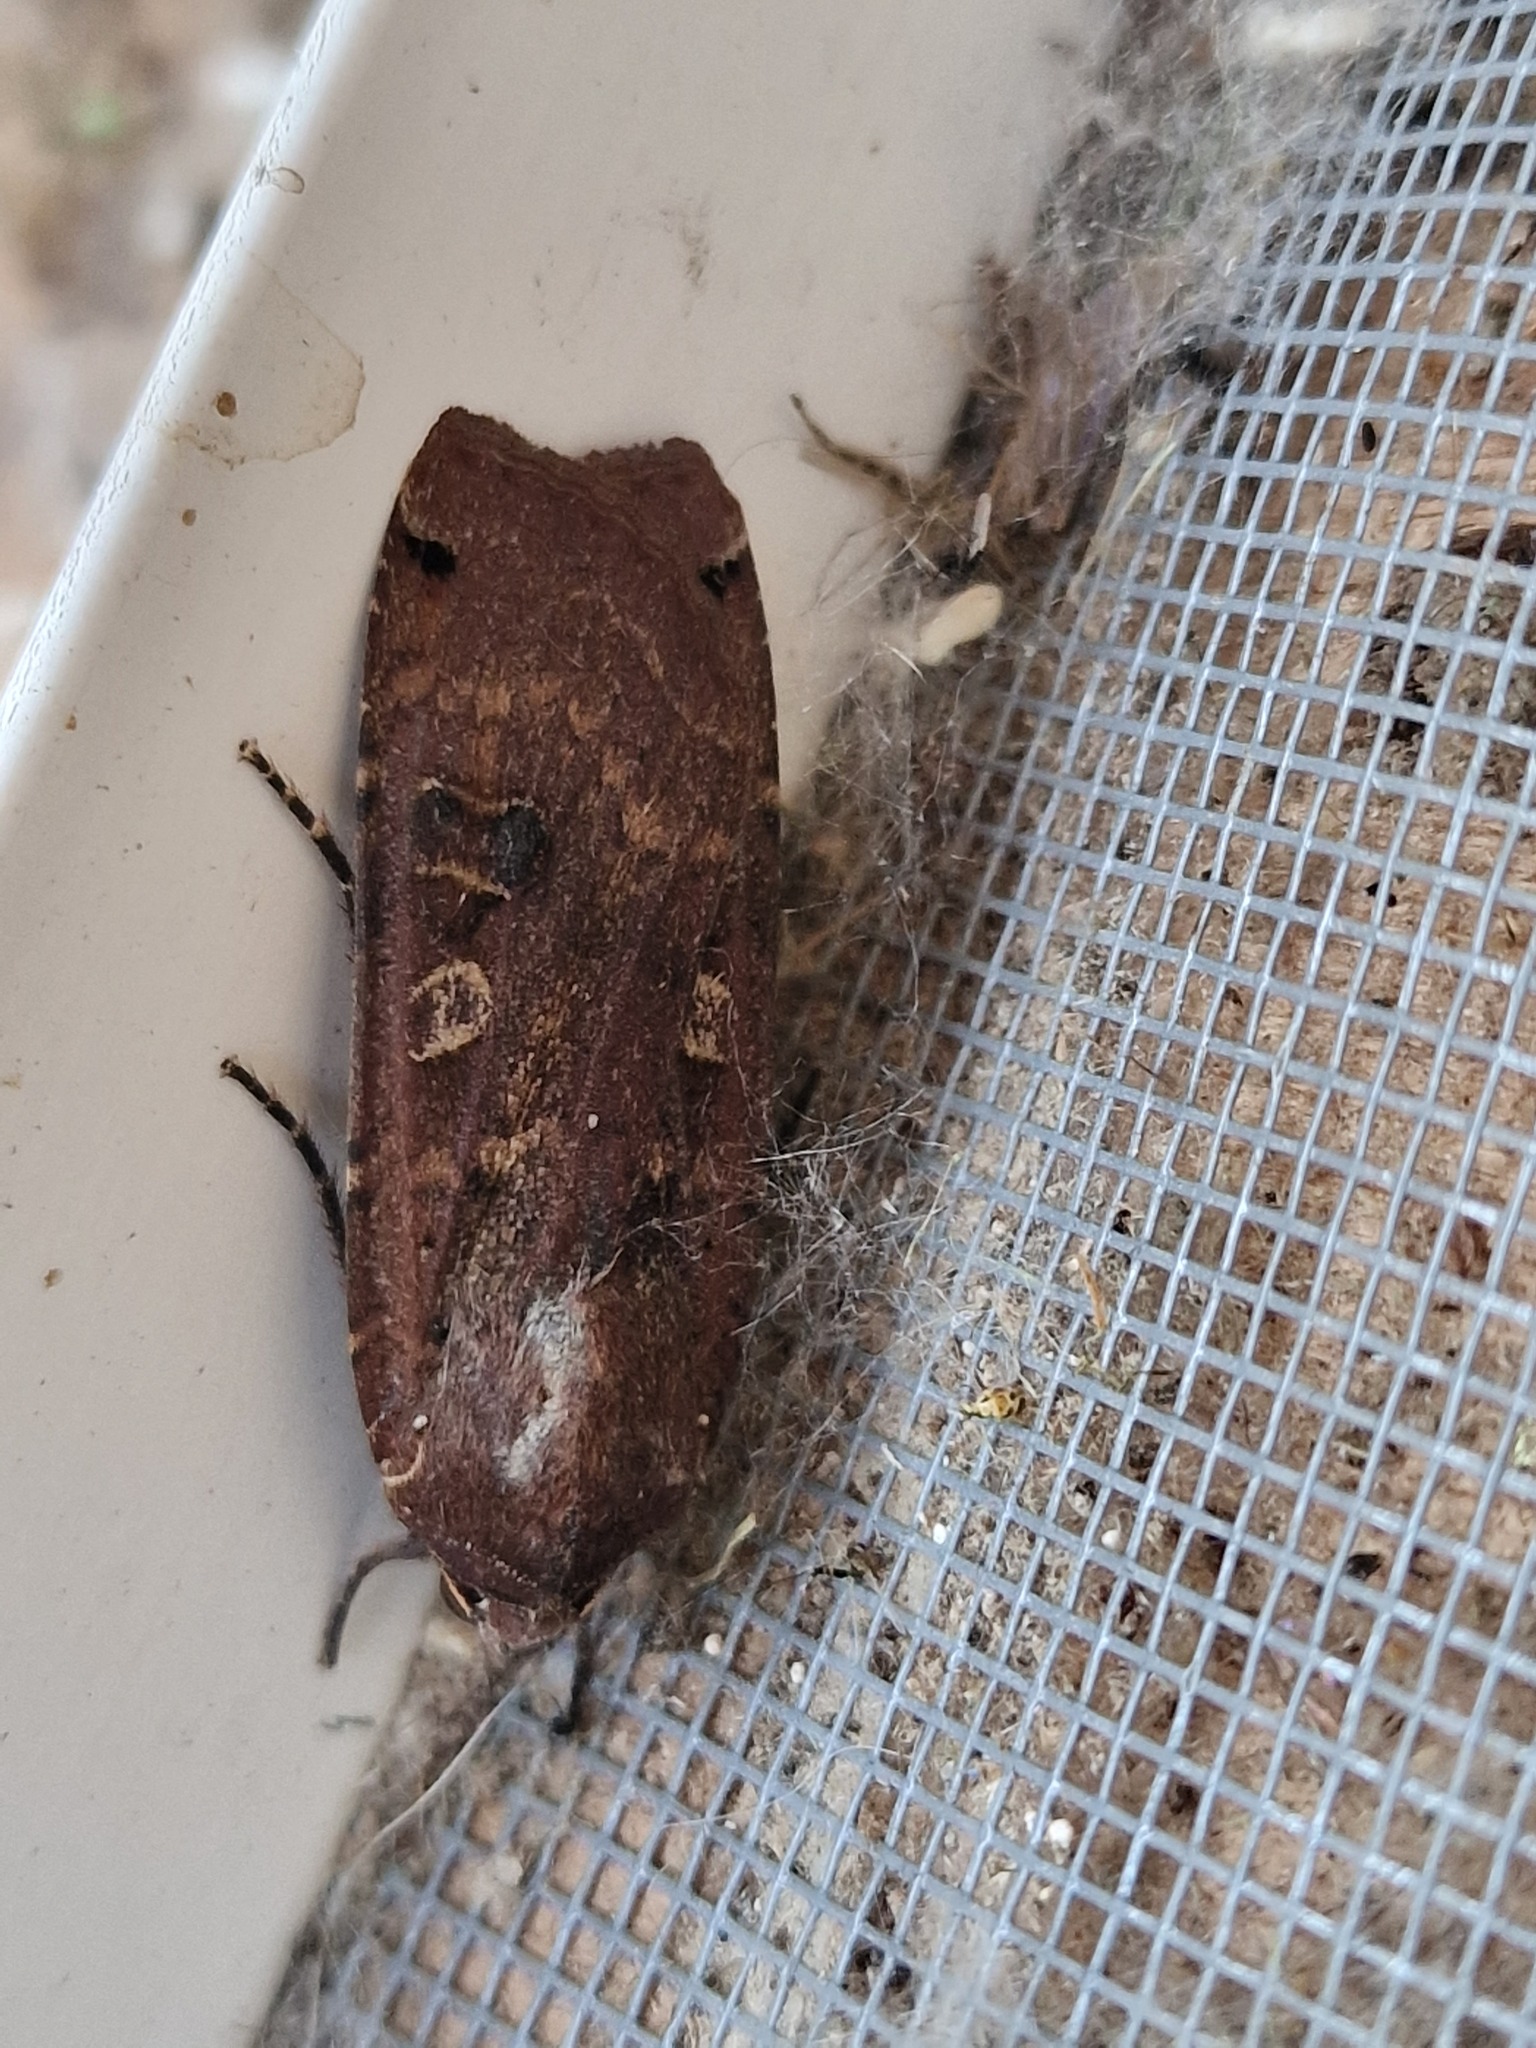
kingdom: Animalia
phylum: Arthropoda
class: Insecta
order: Lepidoptera
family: Noctuidae
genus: Noctua
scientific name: Noctua pronuba
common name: Large yellow underwing
